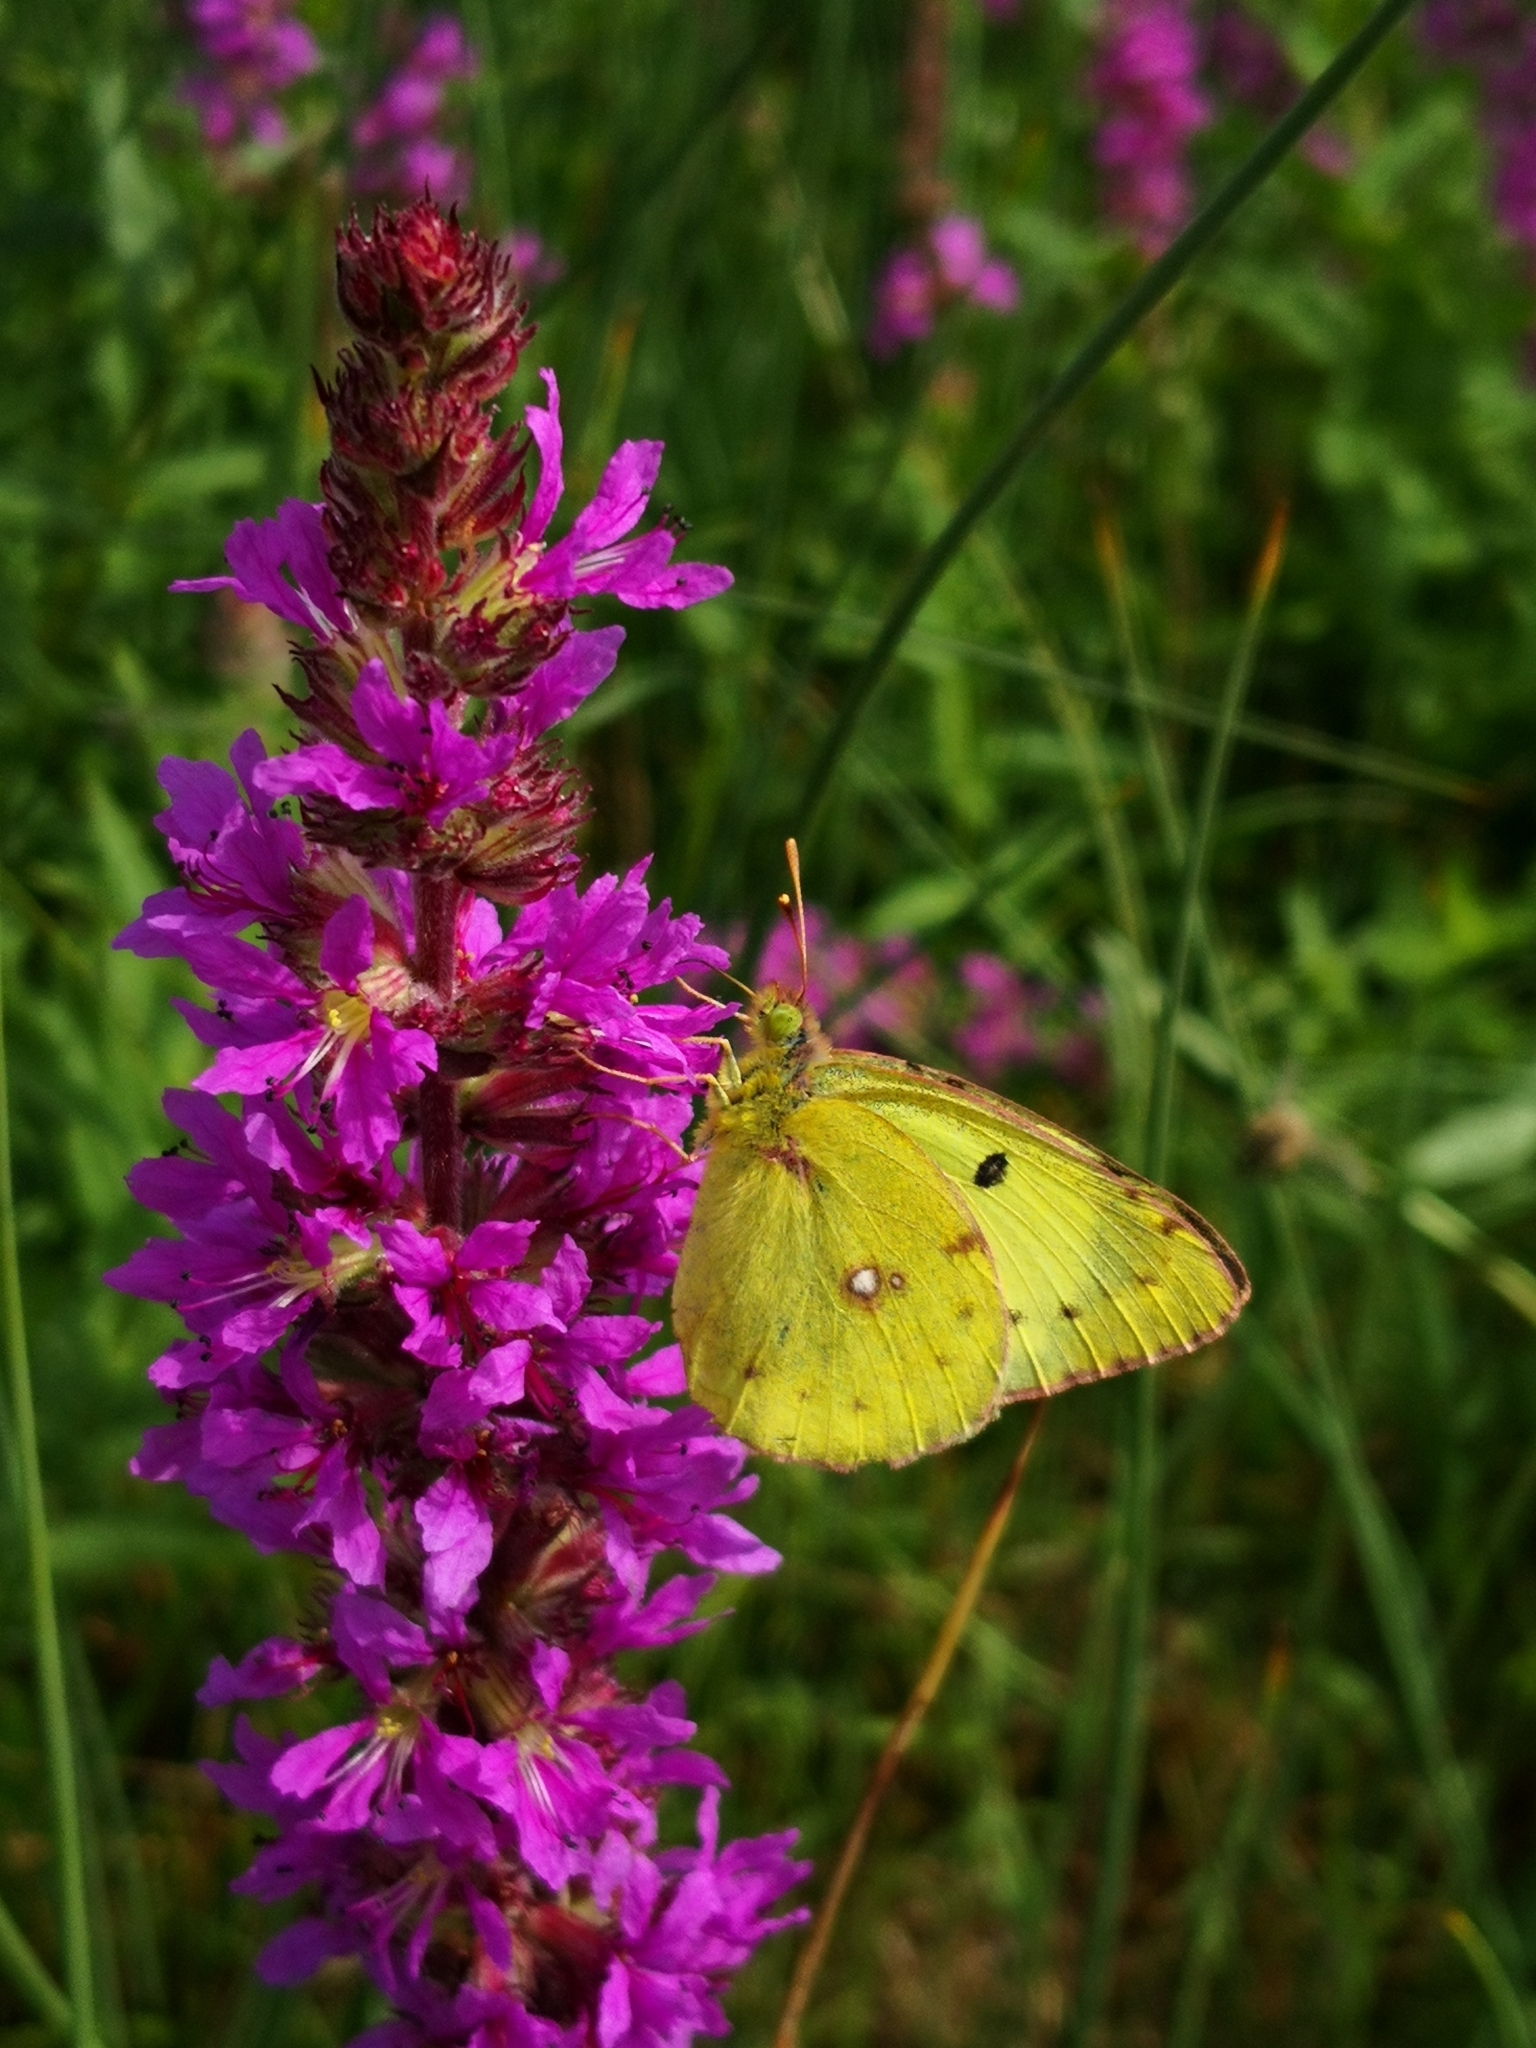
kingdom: Animalia
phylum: Arthropoda
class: Insecta
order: Lepidoptera
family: Pieridae
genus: Colias
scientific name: Colias hyale
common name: Pale clouded yellow
